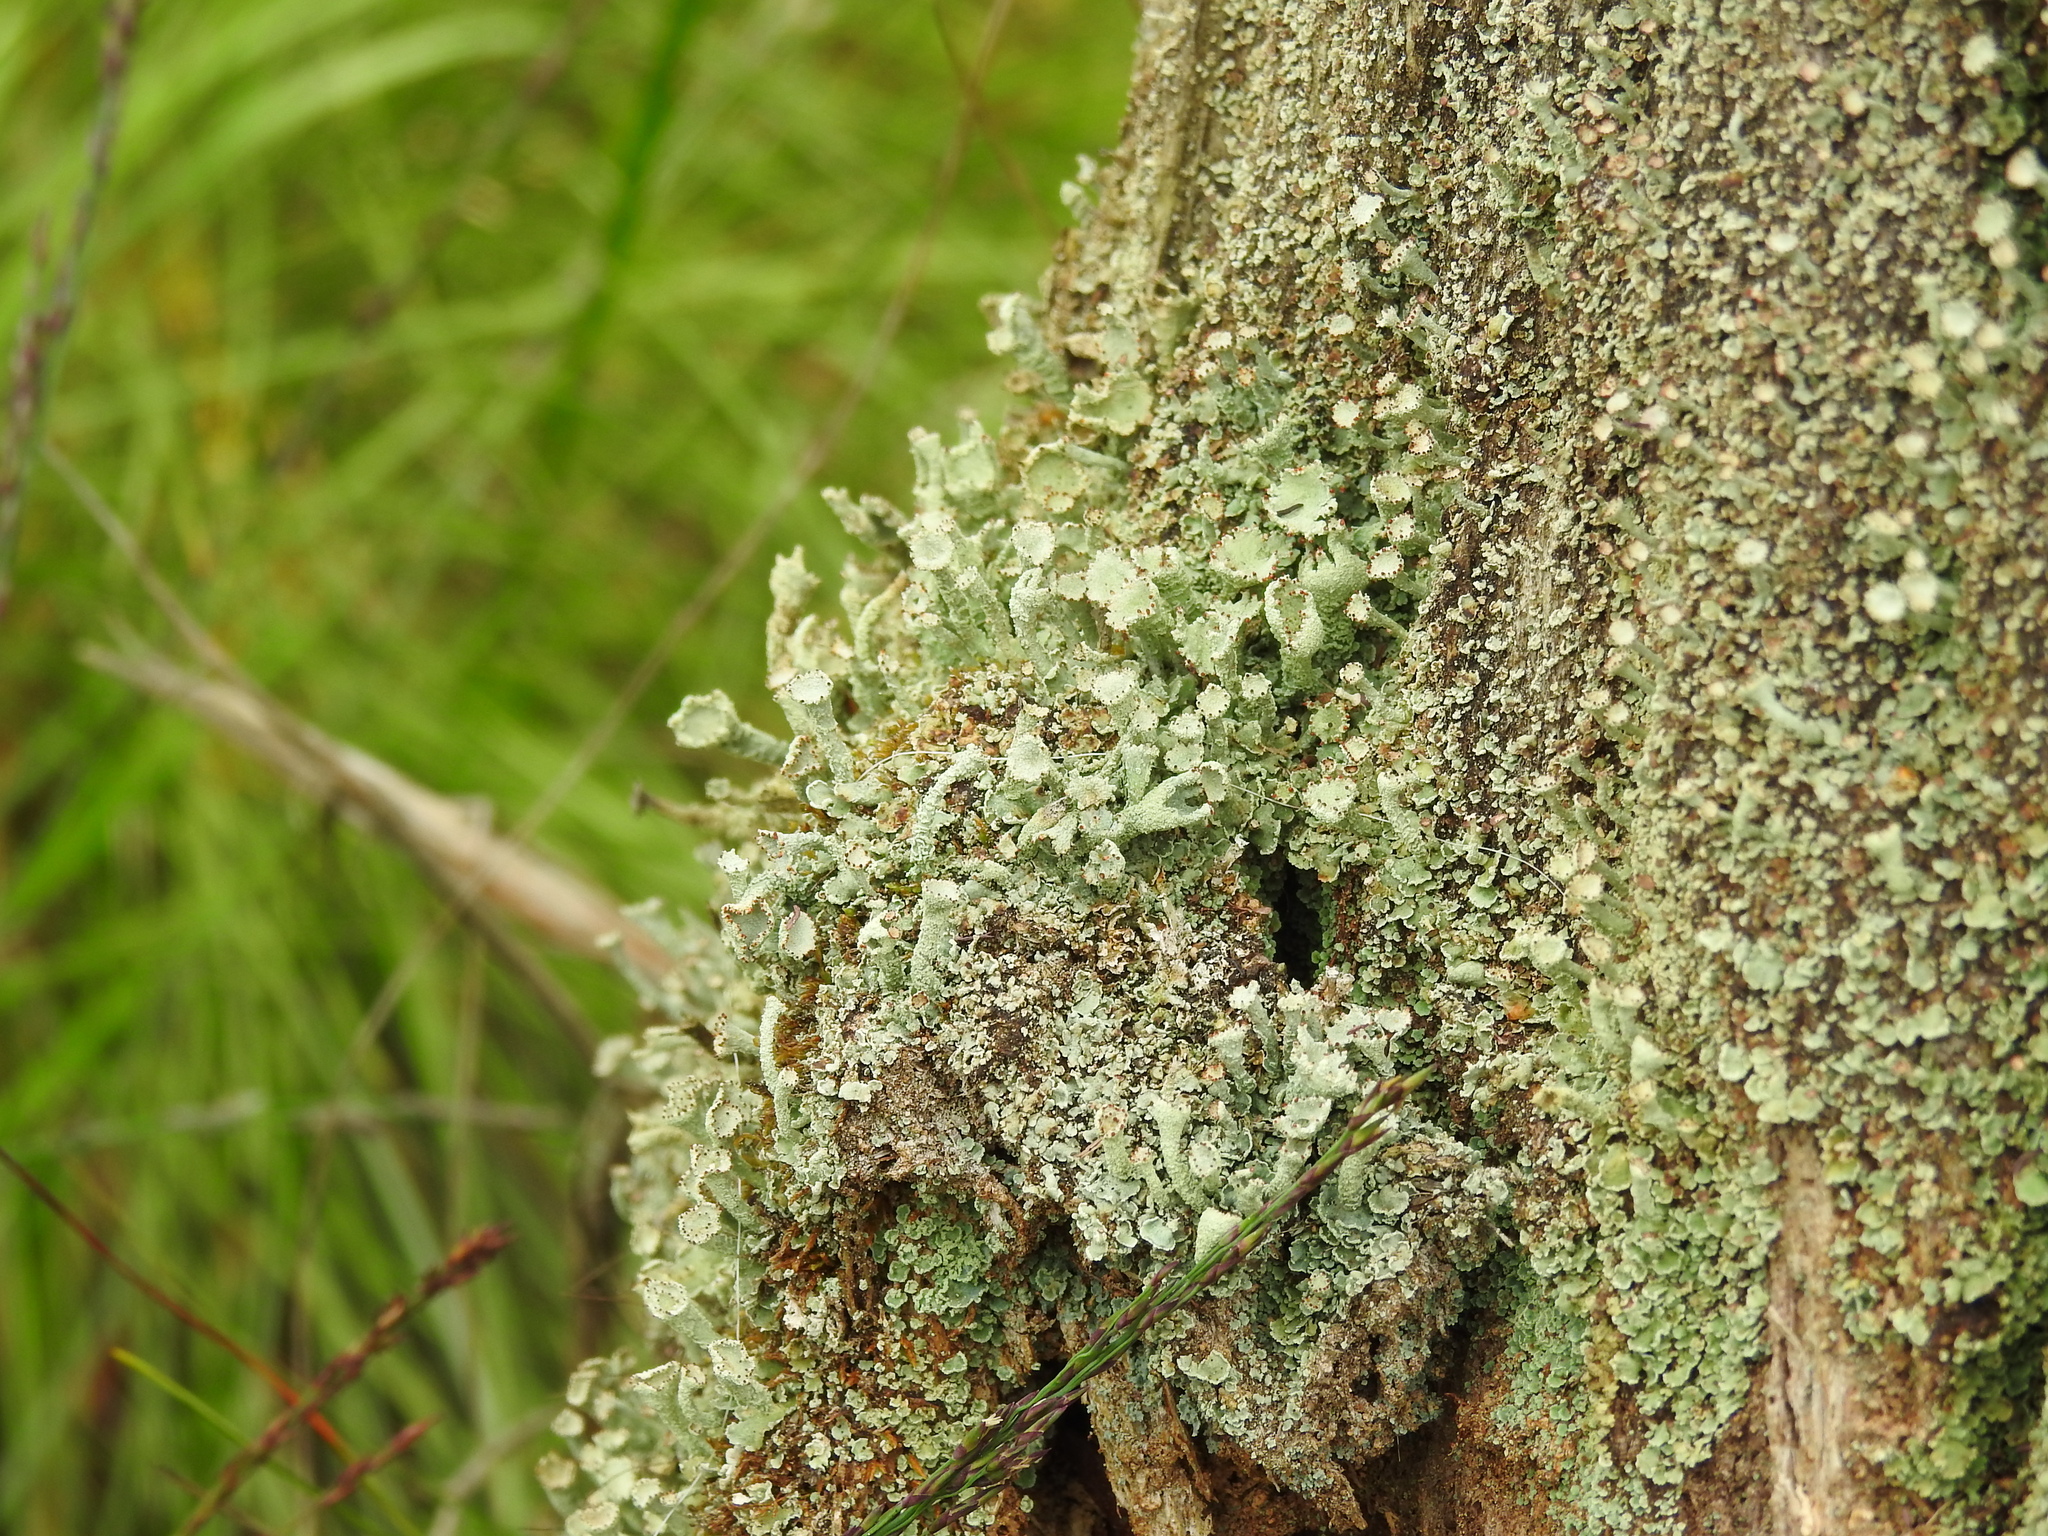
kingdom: Fungi
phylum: Ascomycota
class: Lecanoromycetes
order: Lecanorales
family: Cladoniaceae
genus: Cladonia
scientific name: Cladonia digitata
